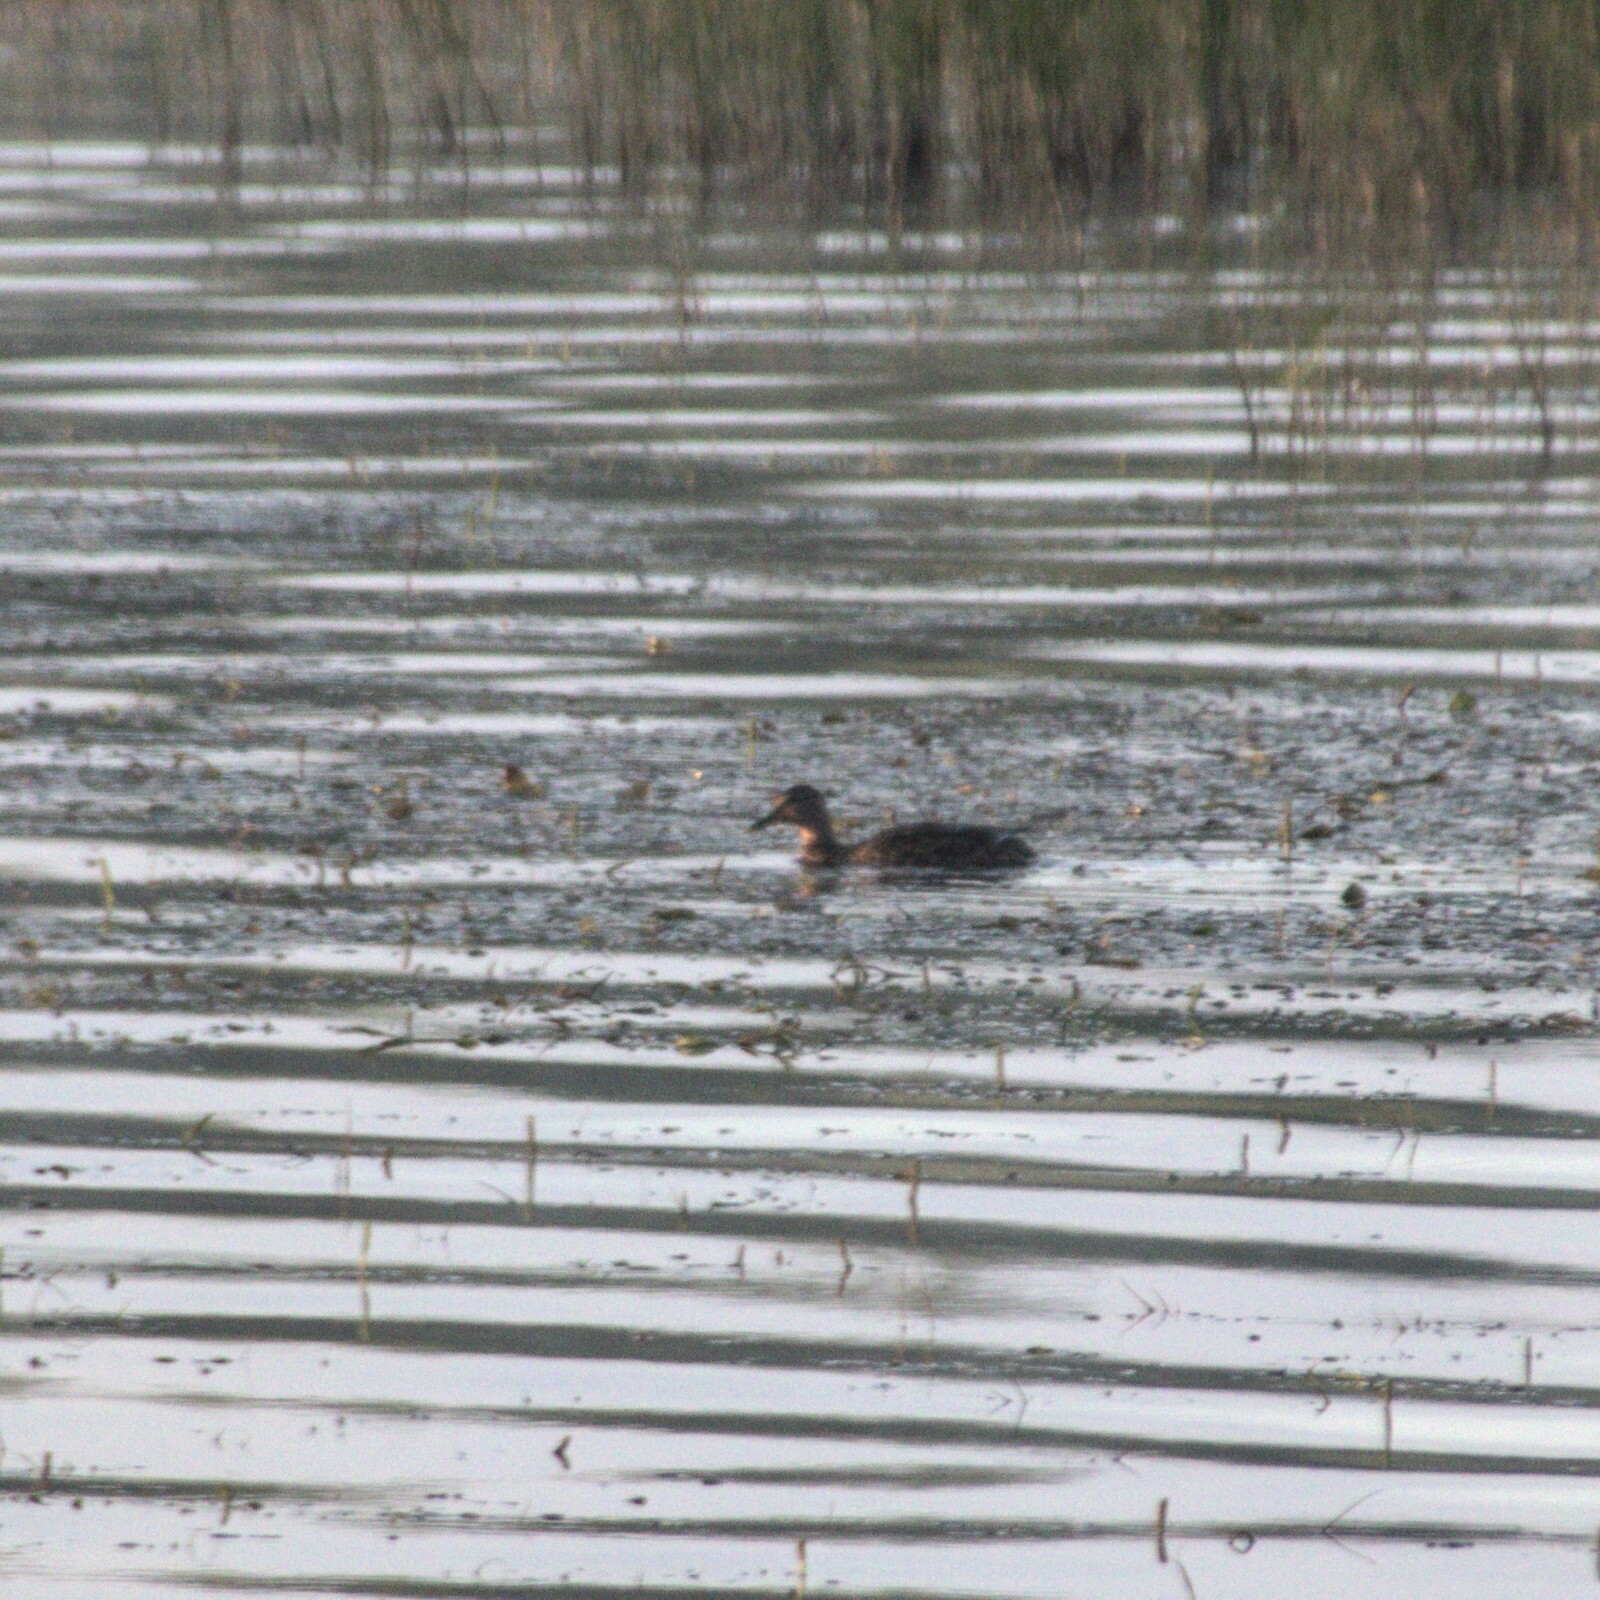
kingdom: Animalia
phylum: Chordata
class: Aves
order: Anseriformes
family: Anatidae
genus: Anas
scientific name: Anas platyrhynchos
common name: Mallard
